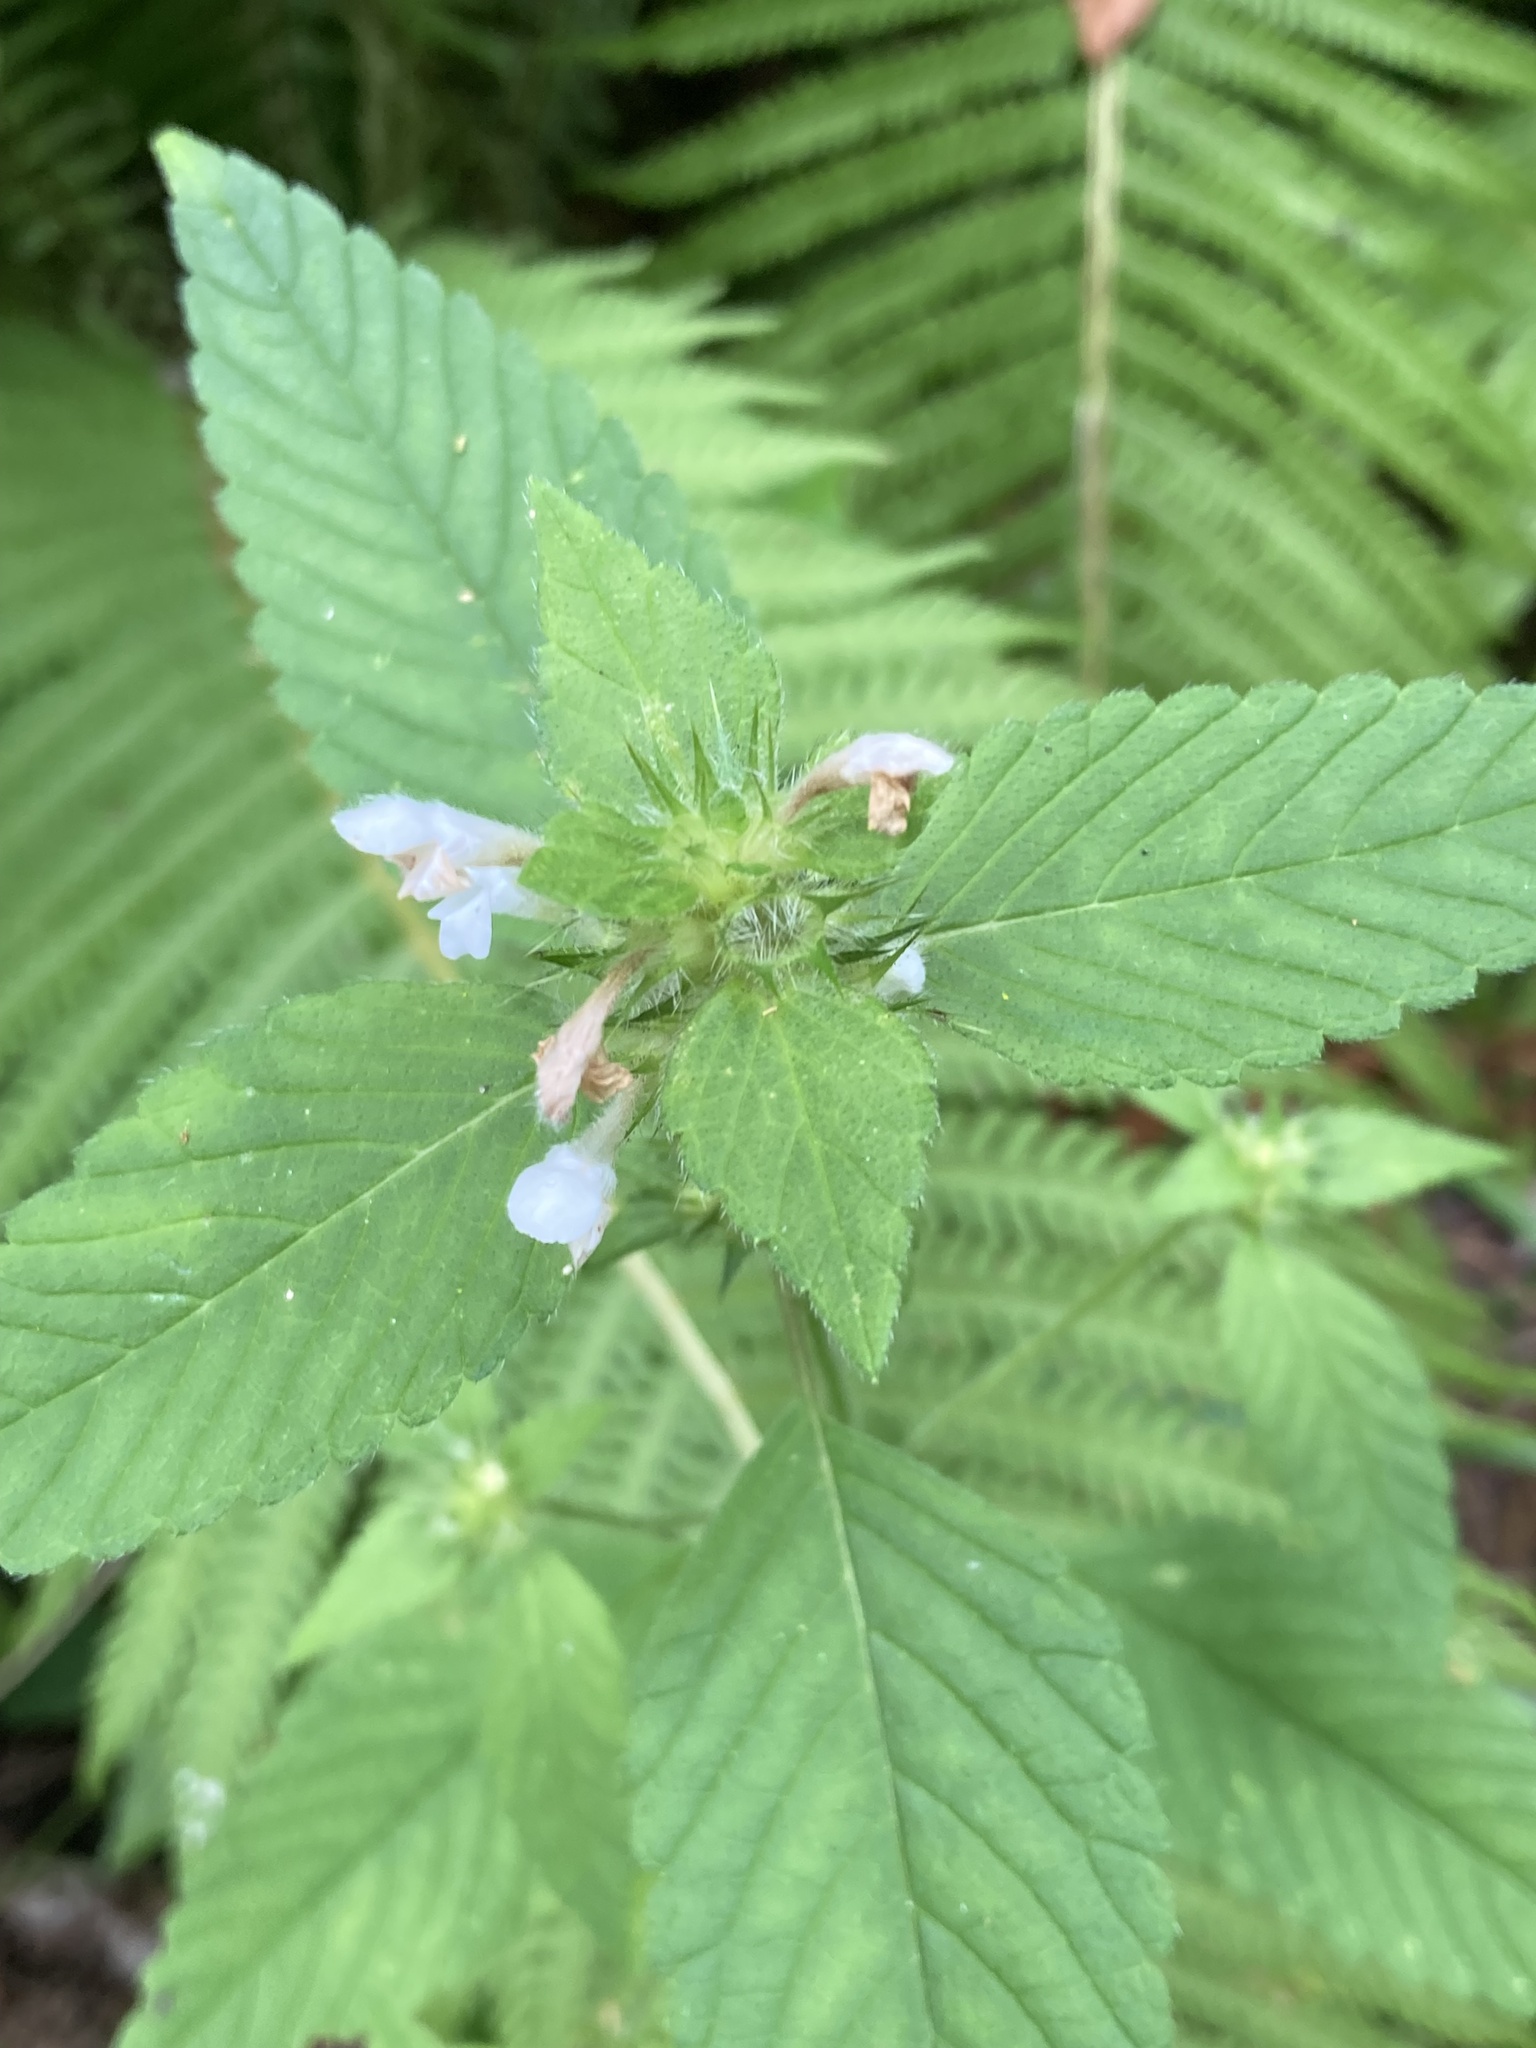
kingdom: Plantae
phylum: Tracheophyta
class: Magnoliopsida
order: Lamiales
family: Lamiaceae
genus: Galeopsis
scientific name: Galeopsis tetrahit
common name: Common hemp-nettle
